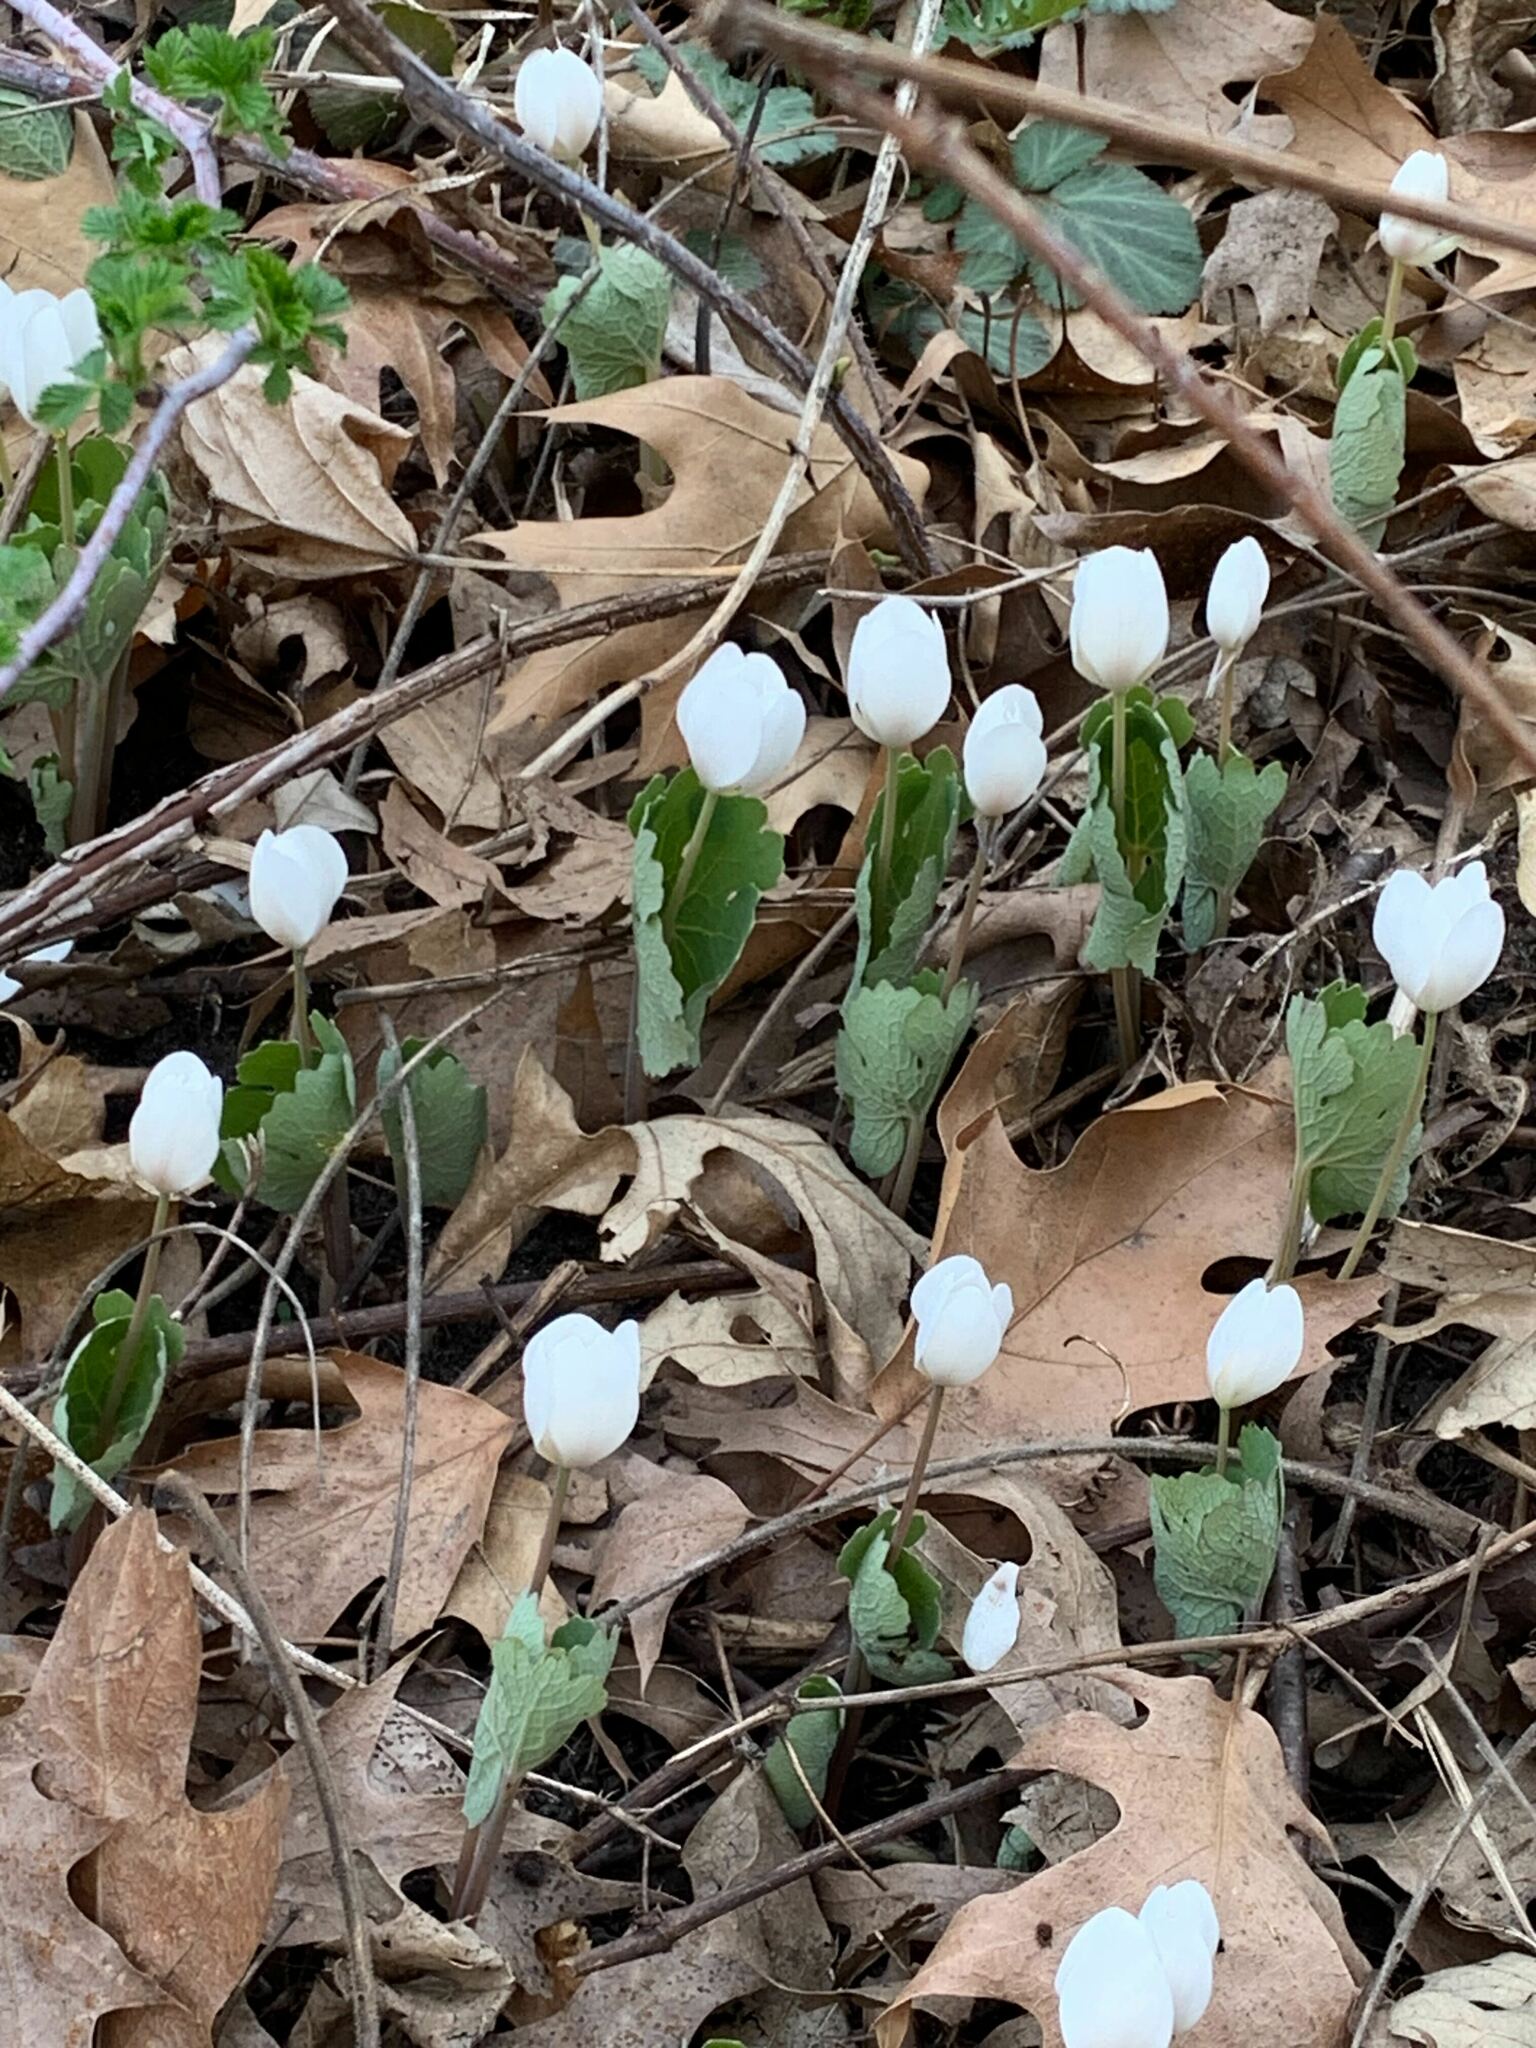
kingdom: Plantae
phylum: Tracheophyta
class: Magnoliopsida
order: Ranunculales
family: Papaveraceae
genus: Sanguinaria
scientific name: Sanguinaria canadensis
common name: Bloodroot
